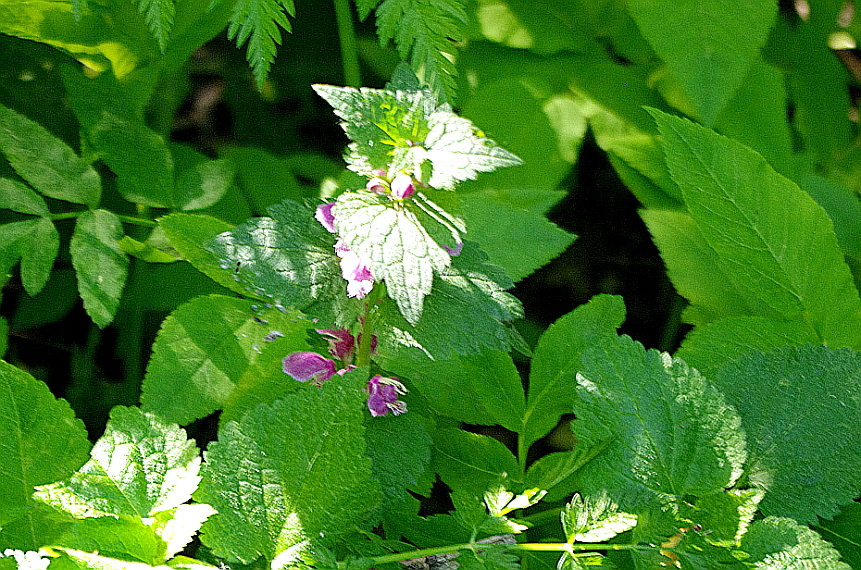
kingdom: Plantae
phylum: Tracheophyta
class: Magnoliopsida
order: Lamiales
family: Lamiaceae
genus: Lamium
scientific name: Lamium maculatum
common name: Spotted dead-nettle
